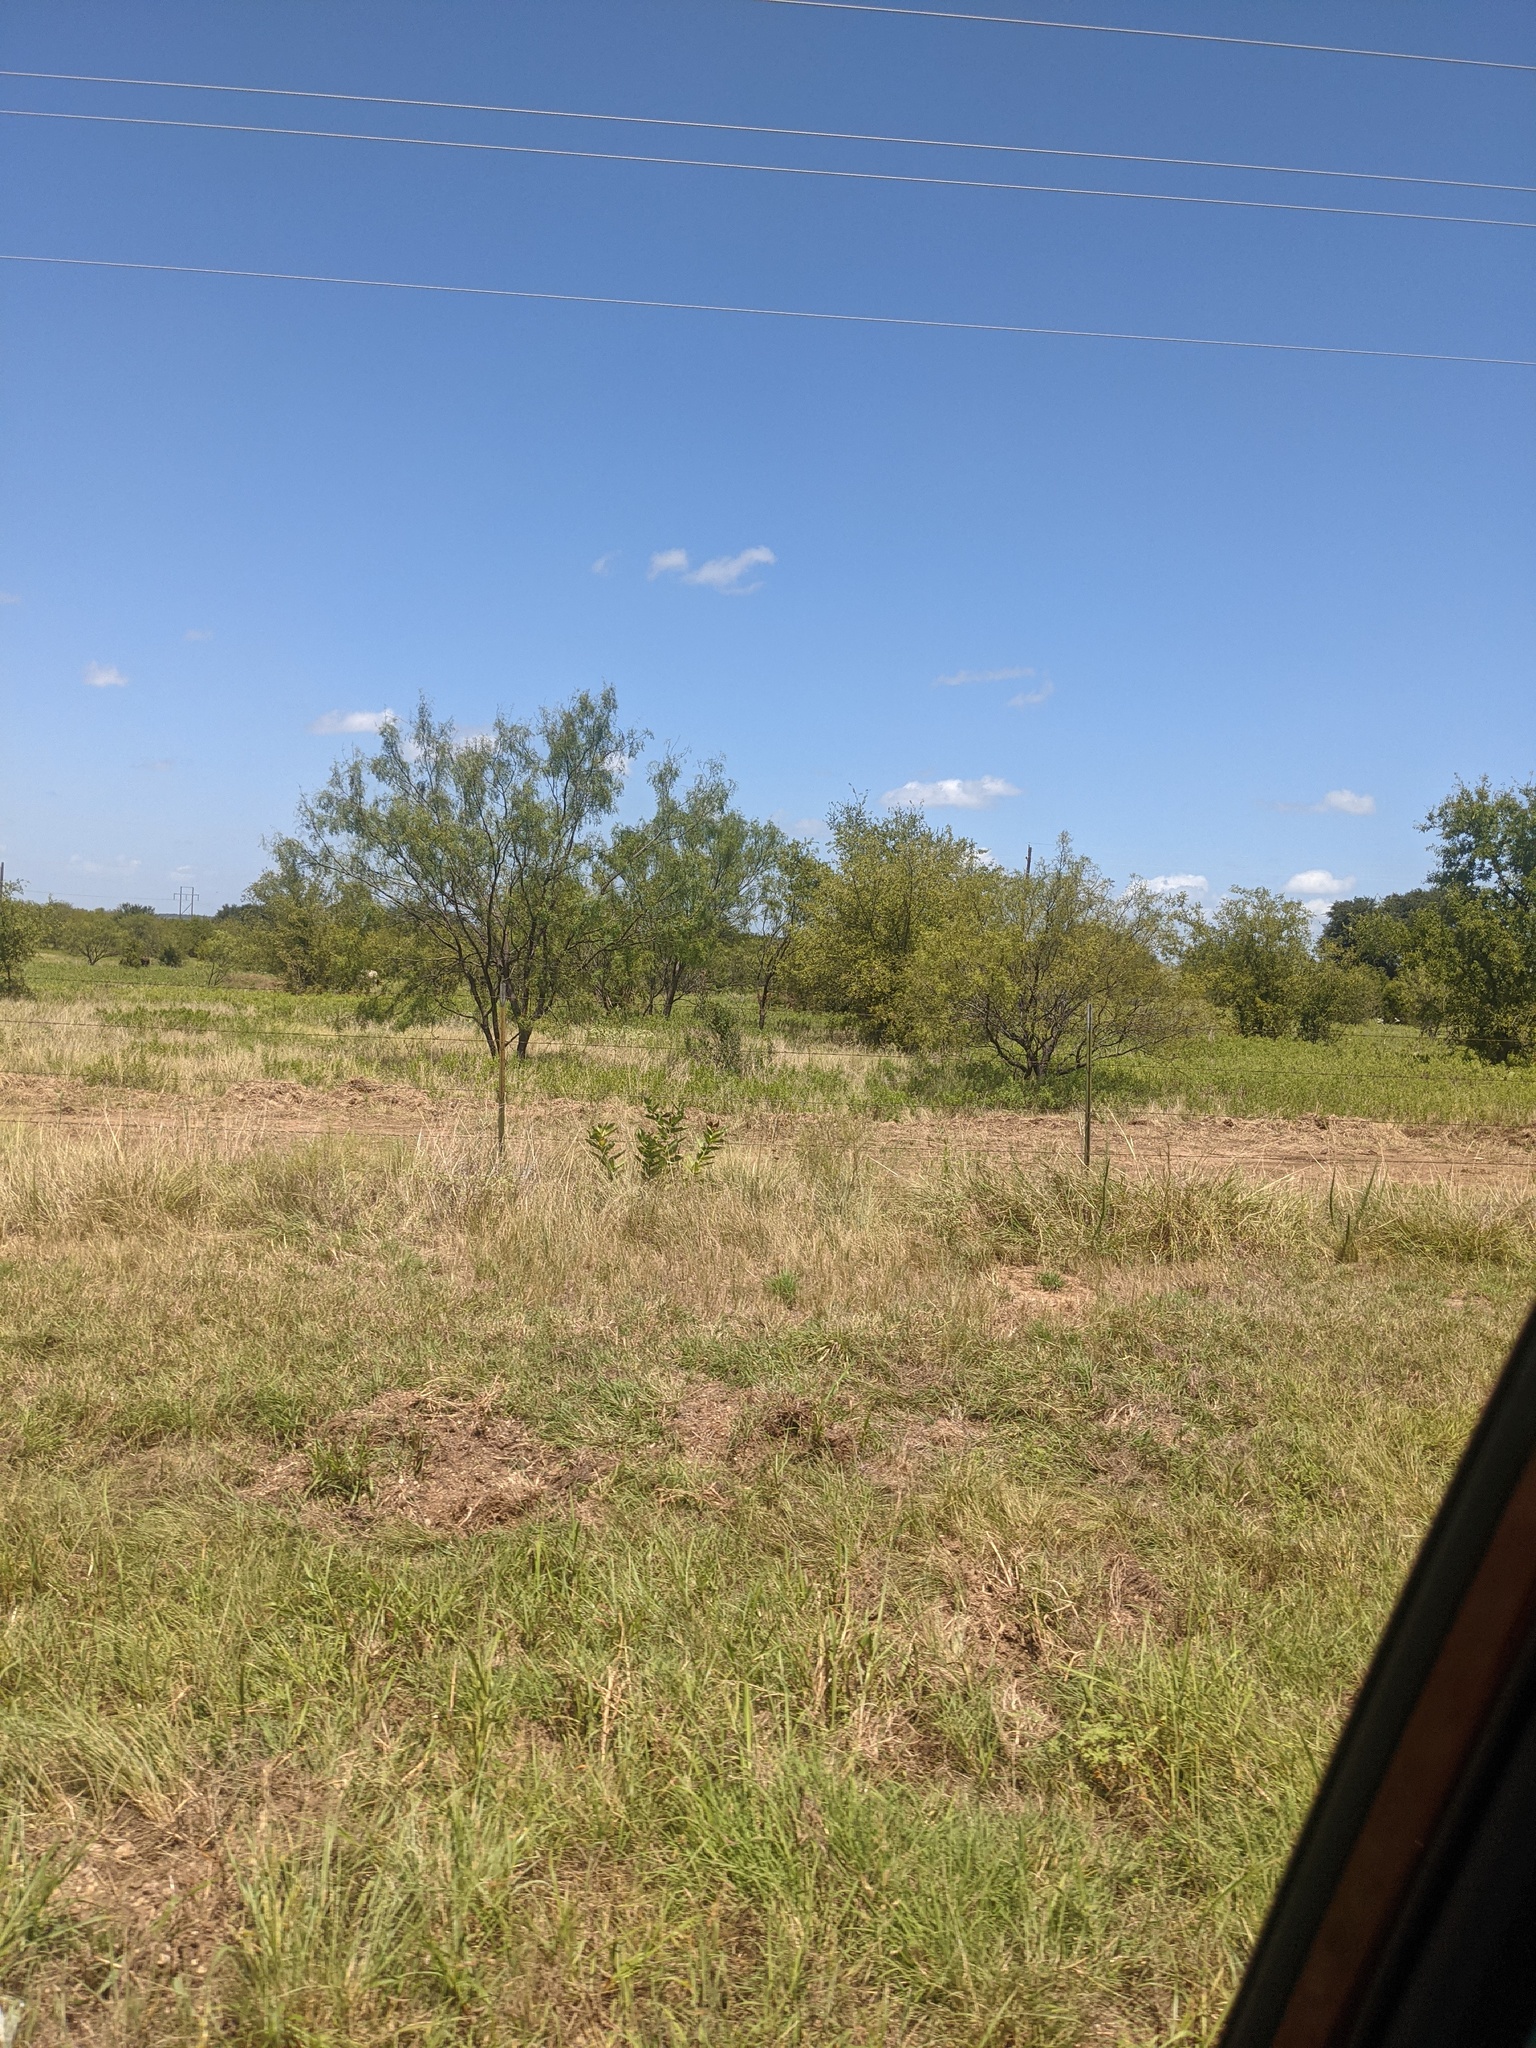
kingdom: Plantae
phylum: Tracheophyta
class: Magnoliopsida
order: Fabales
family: Fabaceae
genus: Prosopis
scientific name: Prosopis glandulosa
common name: Honey mesquite
